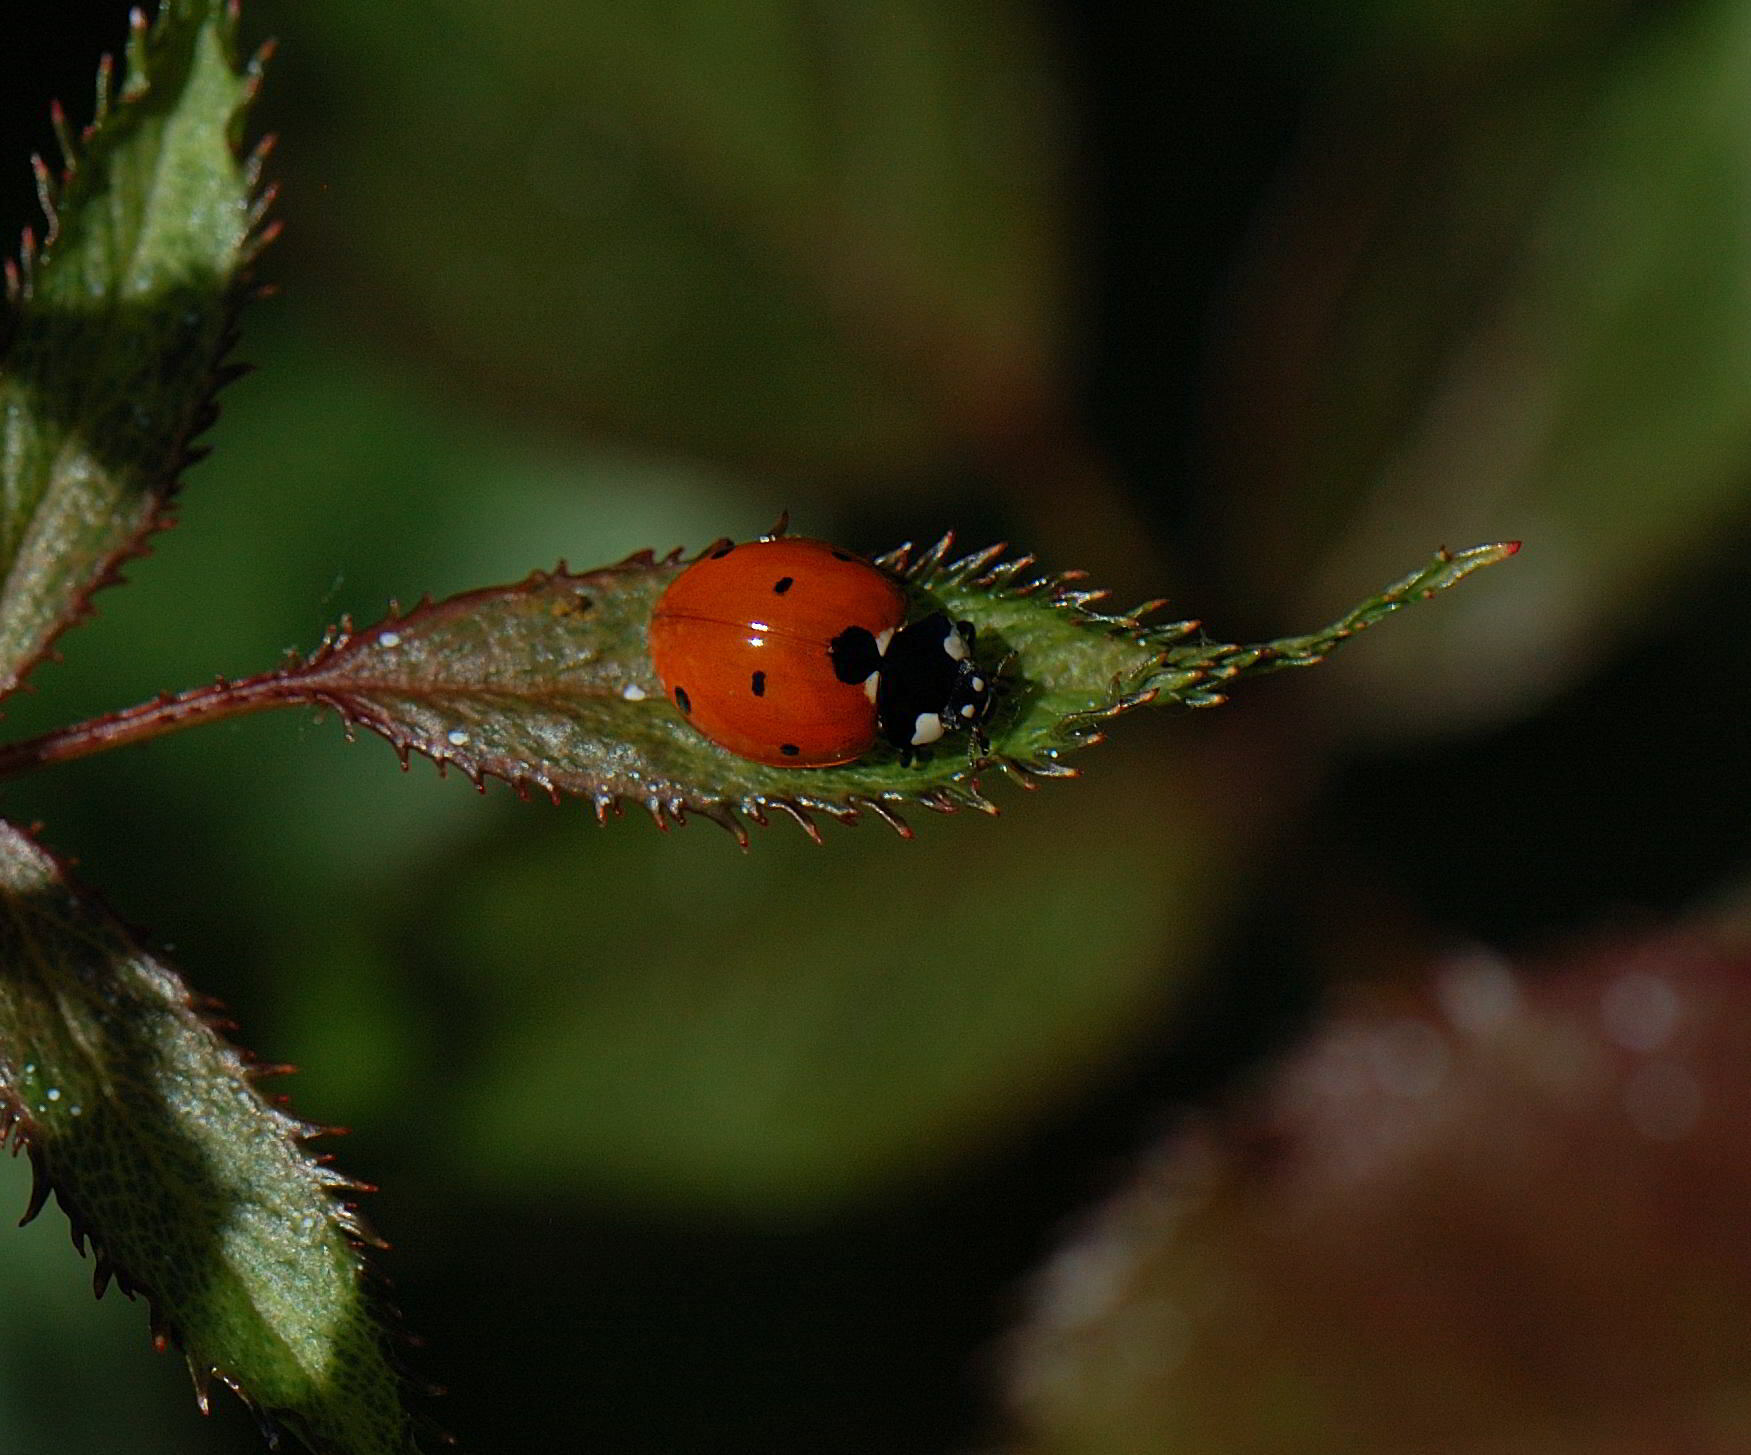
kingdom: Animalia
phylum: Arthropoda
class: Insecta
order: Coleoptera
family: Coccinellidae
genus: Coccinella
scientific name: Coccinella septempunctata
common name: Sevenspotted lady beetle
